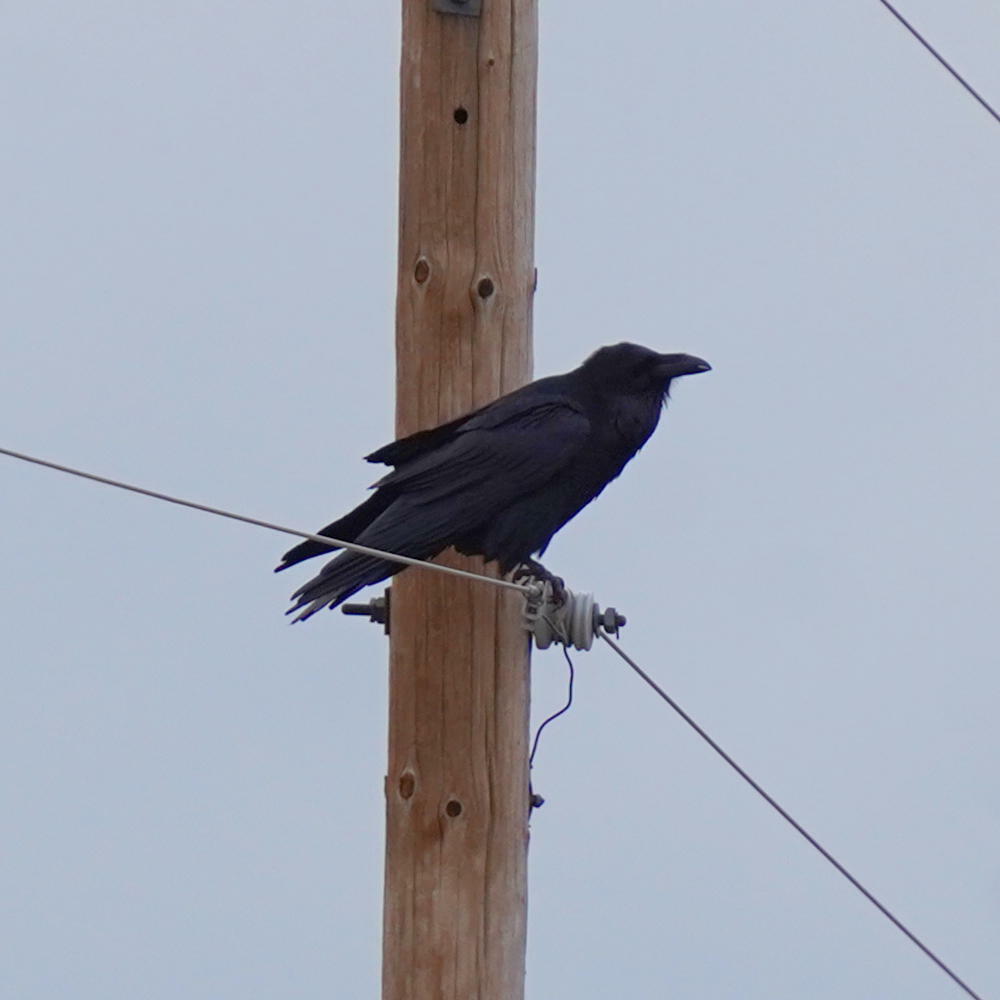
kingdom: Animalia
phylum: Chordata
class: Aves
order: Passeriformes
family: Corvidae
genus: Corvus
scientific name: Corvus corax
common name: Common raven
